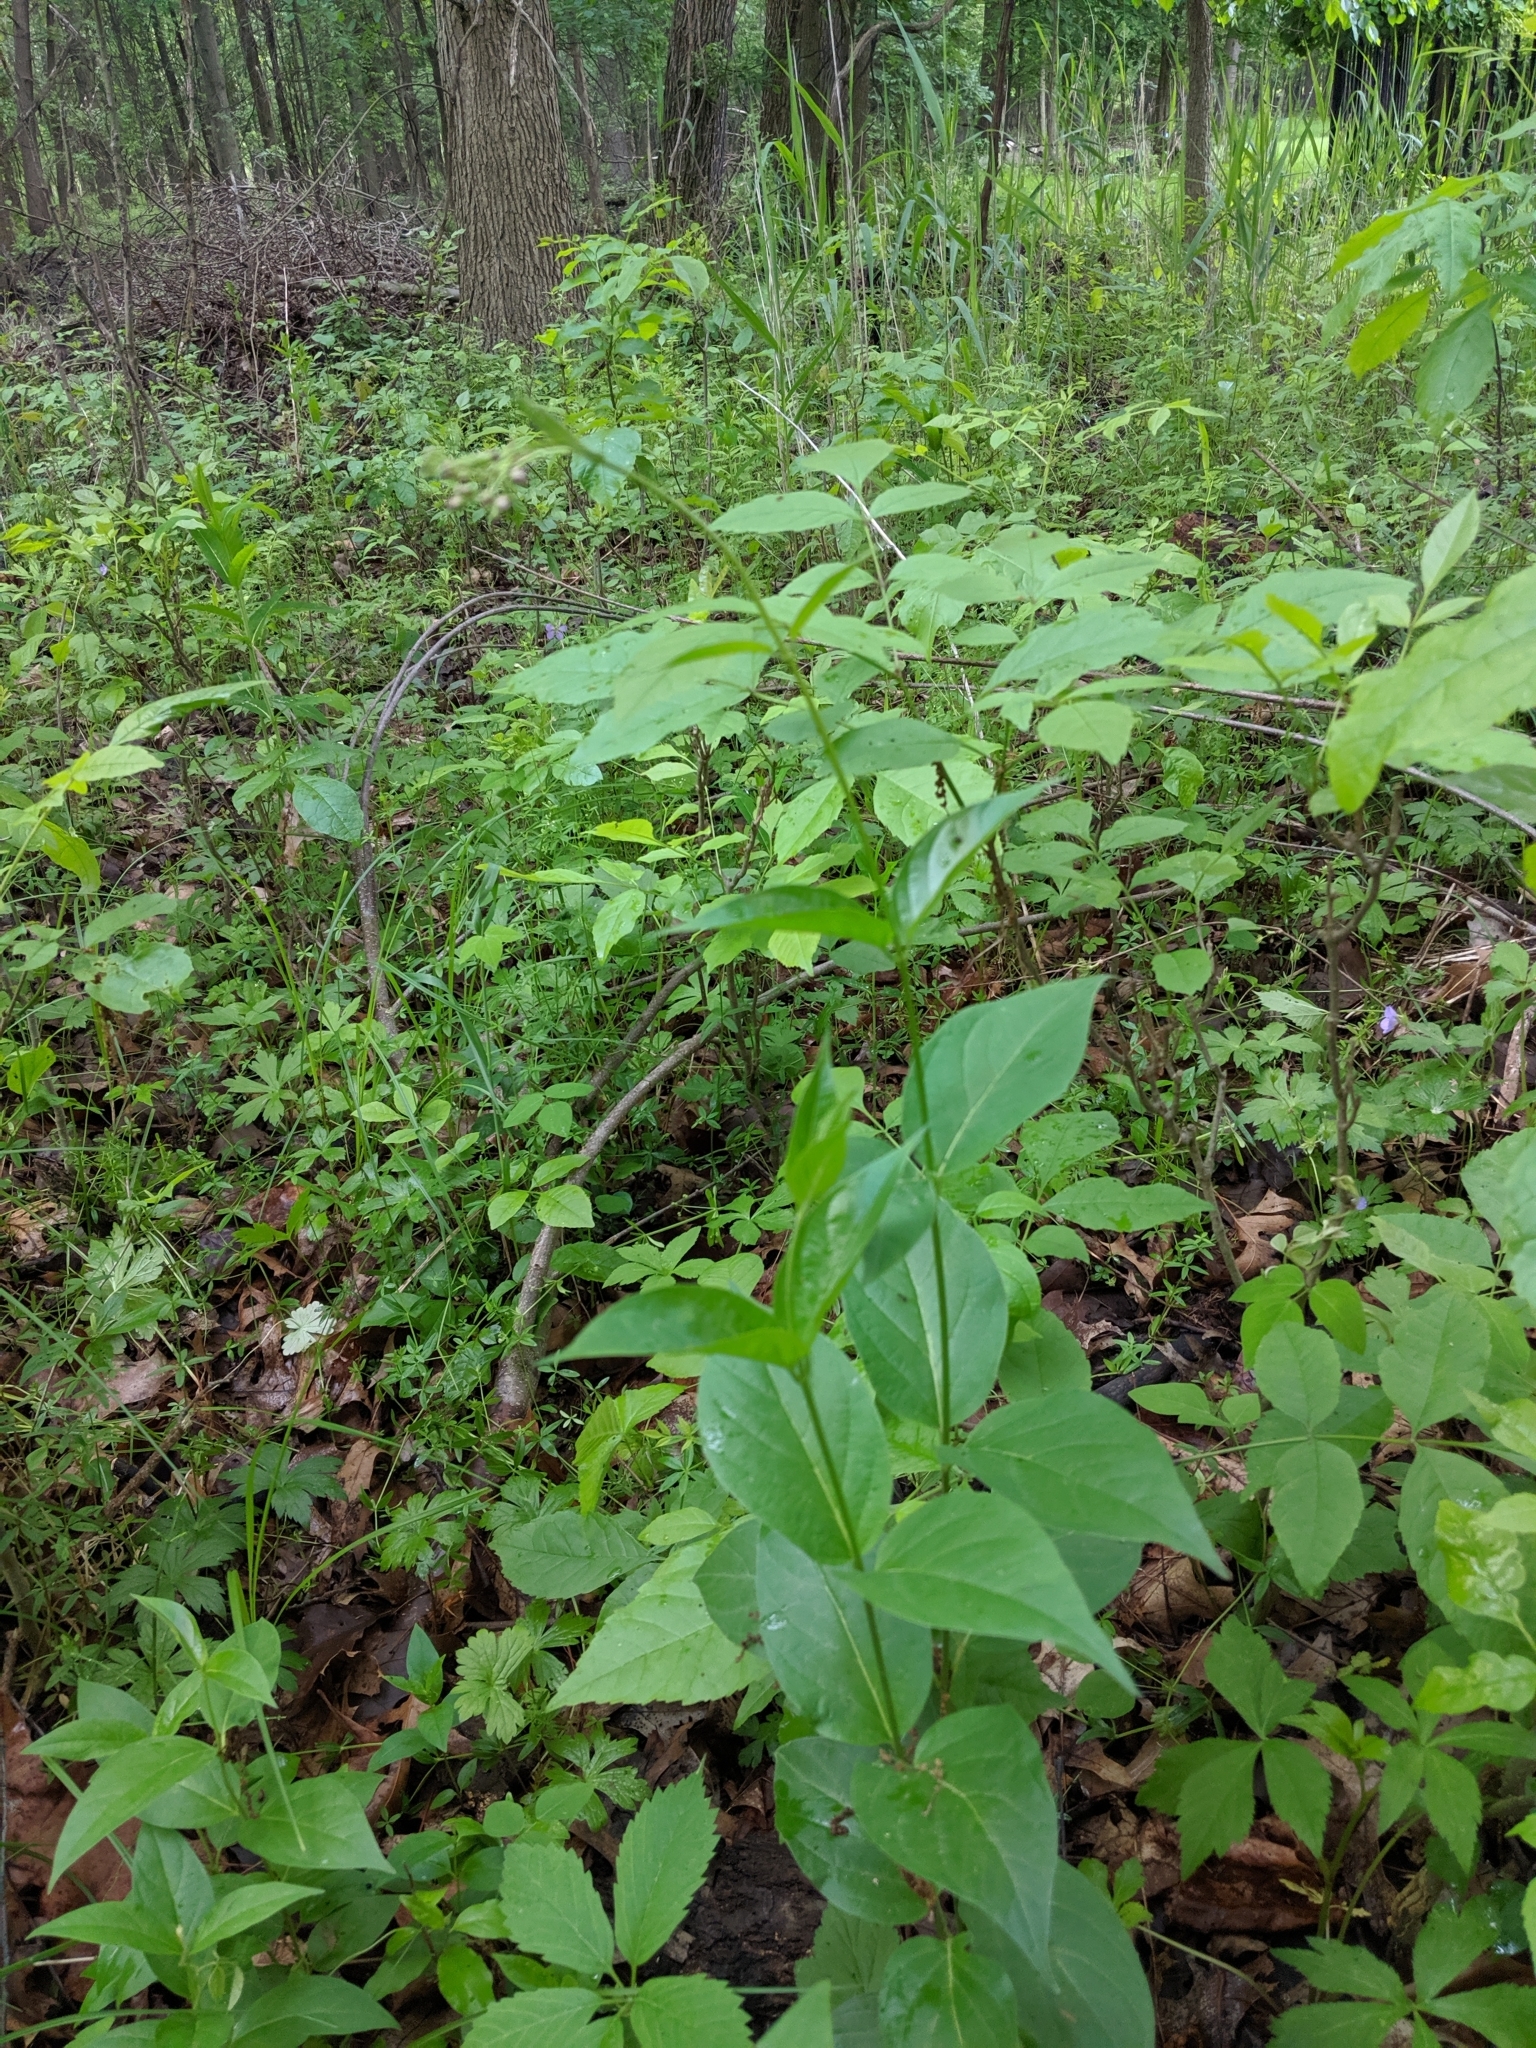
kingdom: Plantae
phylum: Tracheophyta
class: Magnoliopsida
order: Gentianales
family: Apocynaceae
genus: Vincetoxicum
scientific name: Vincetoxicum rossicum
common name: Dog-strangling vine
